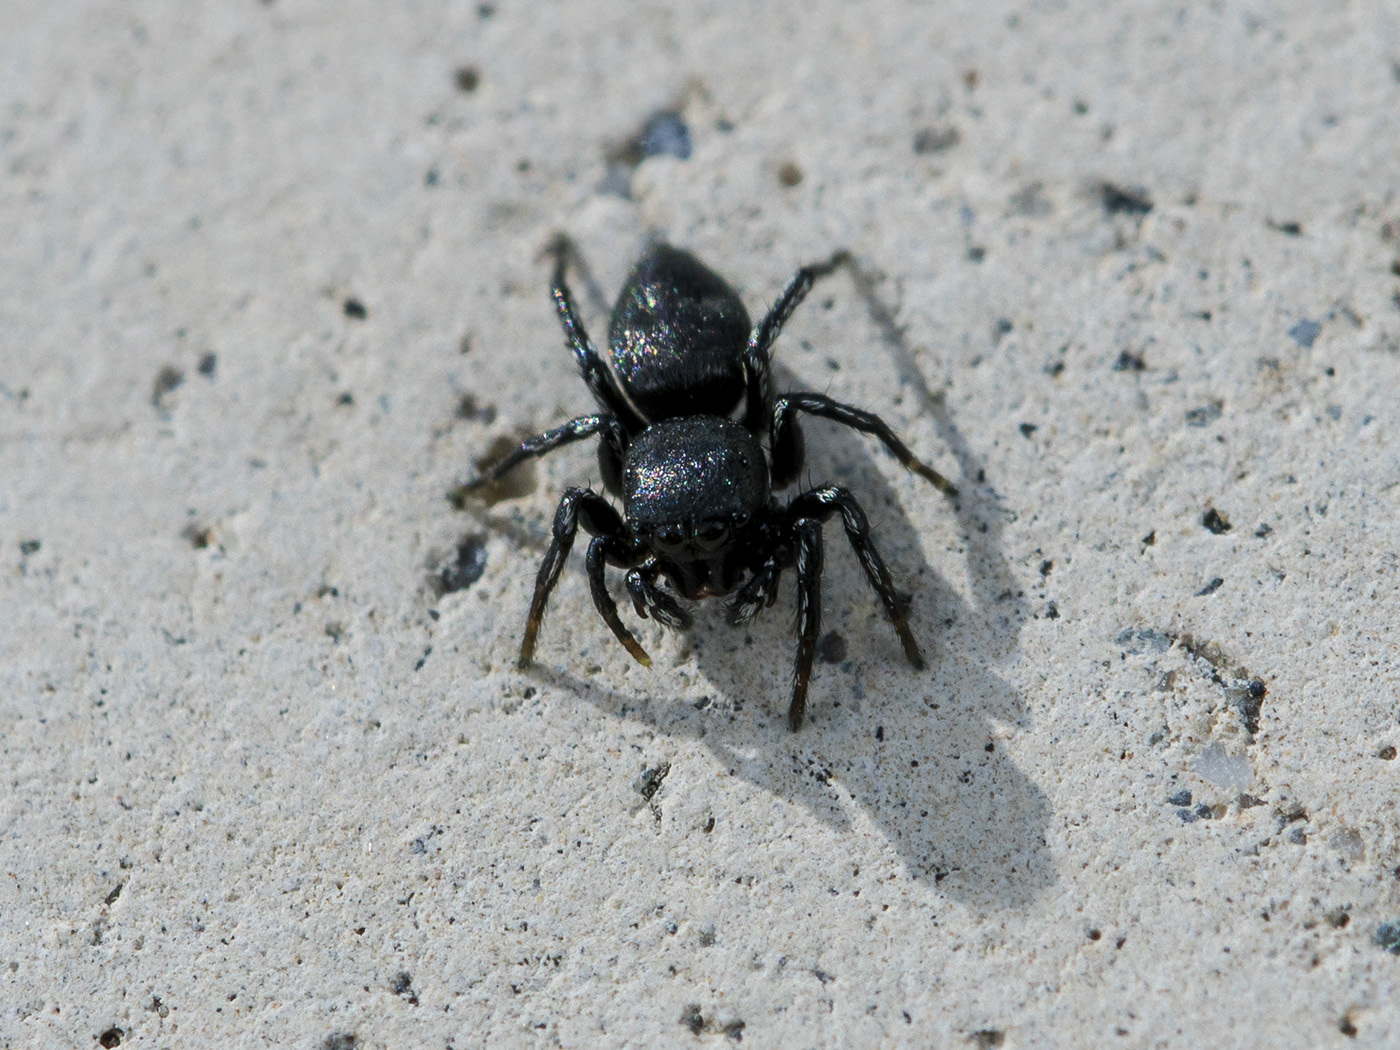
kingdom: Animalia
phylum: Arthropoda
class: Arachnida
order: Araneae
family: Salticidae
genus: Heliophanus
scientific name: Heliophanus potanini
